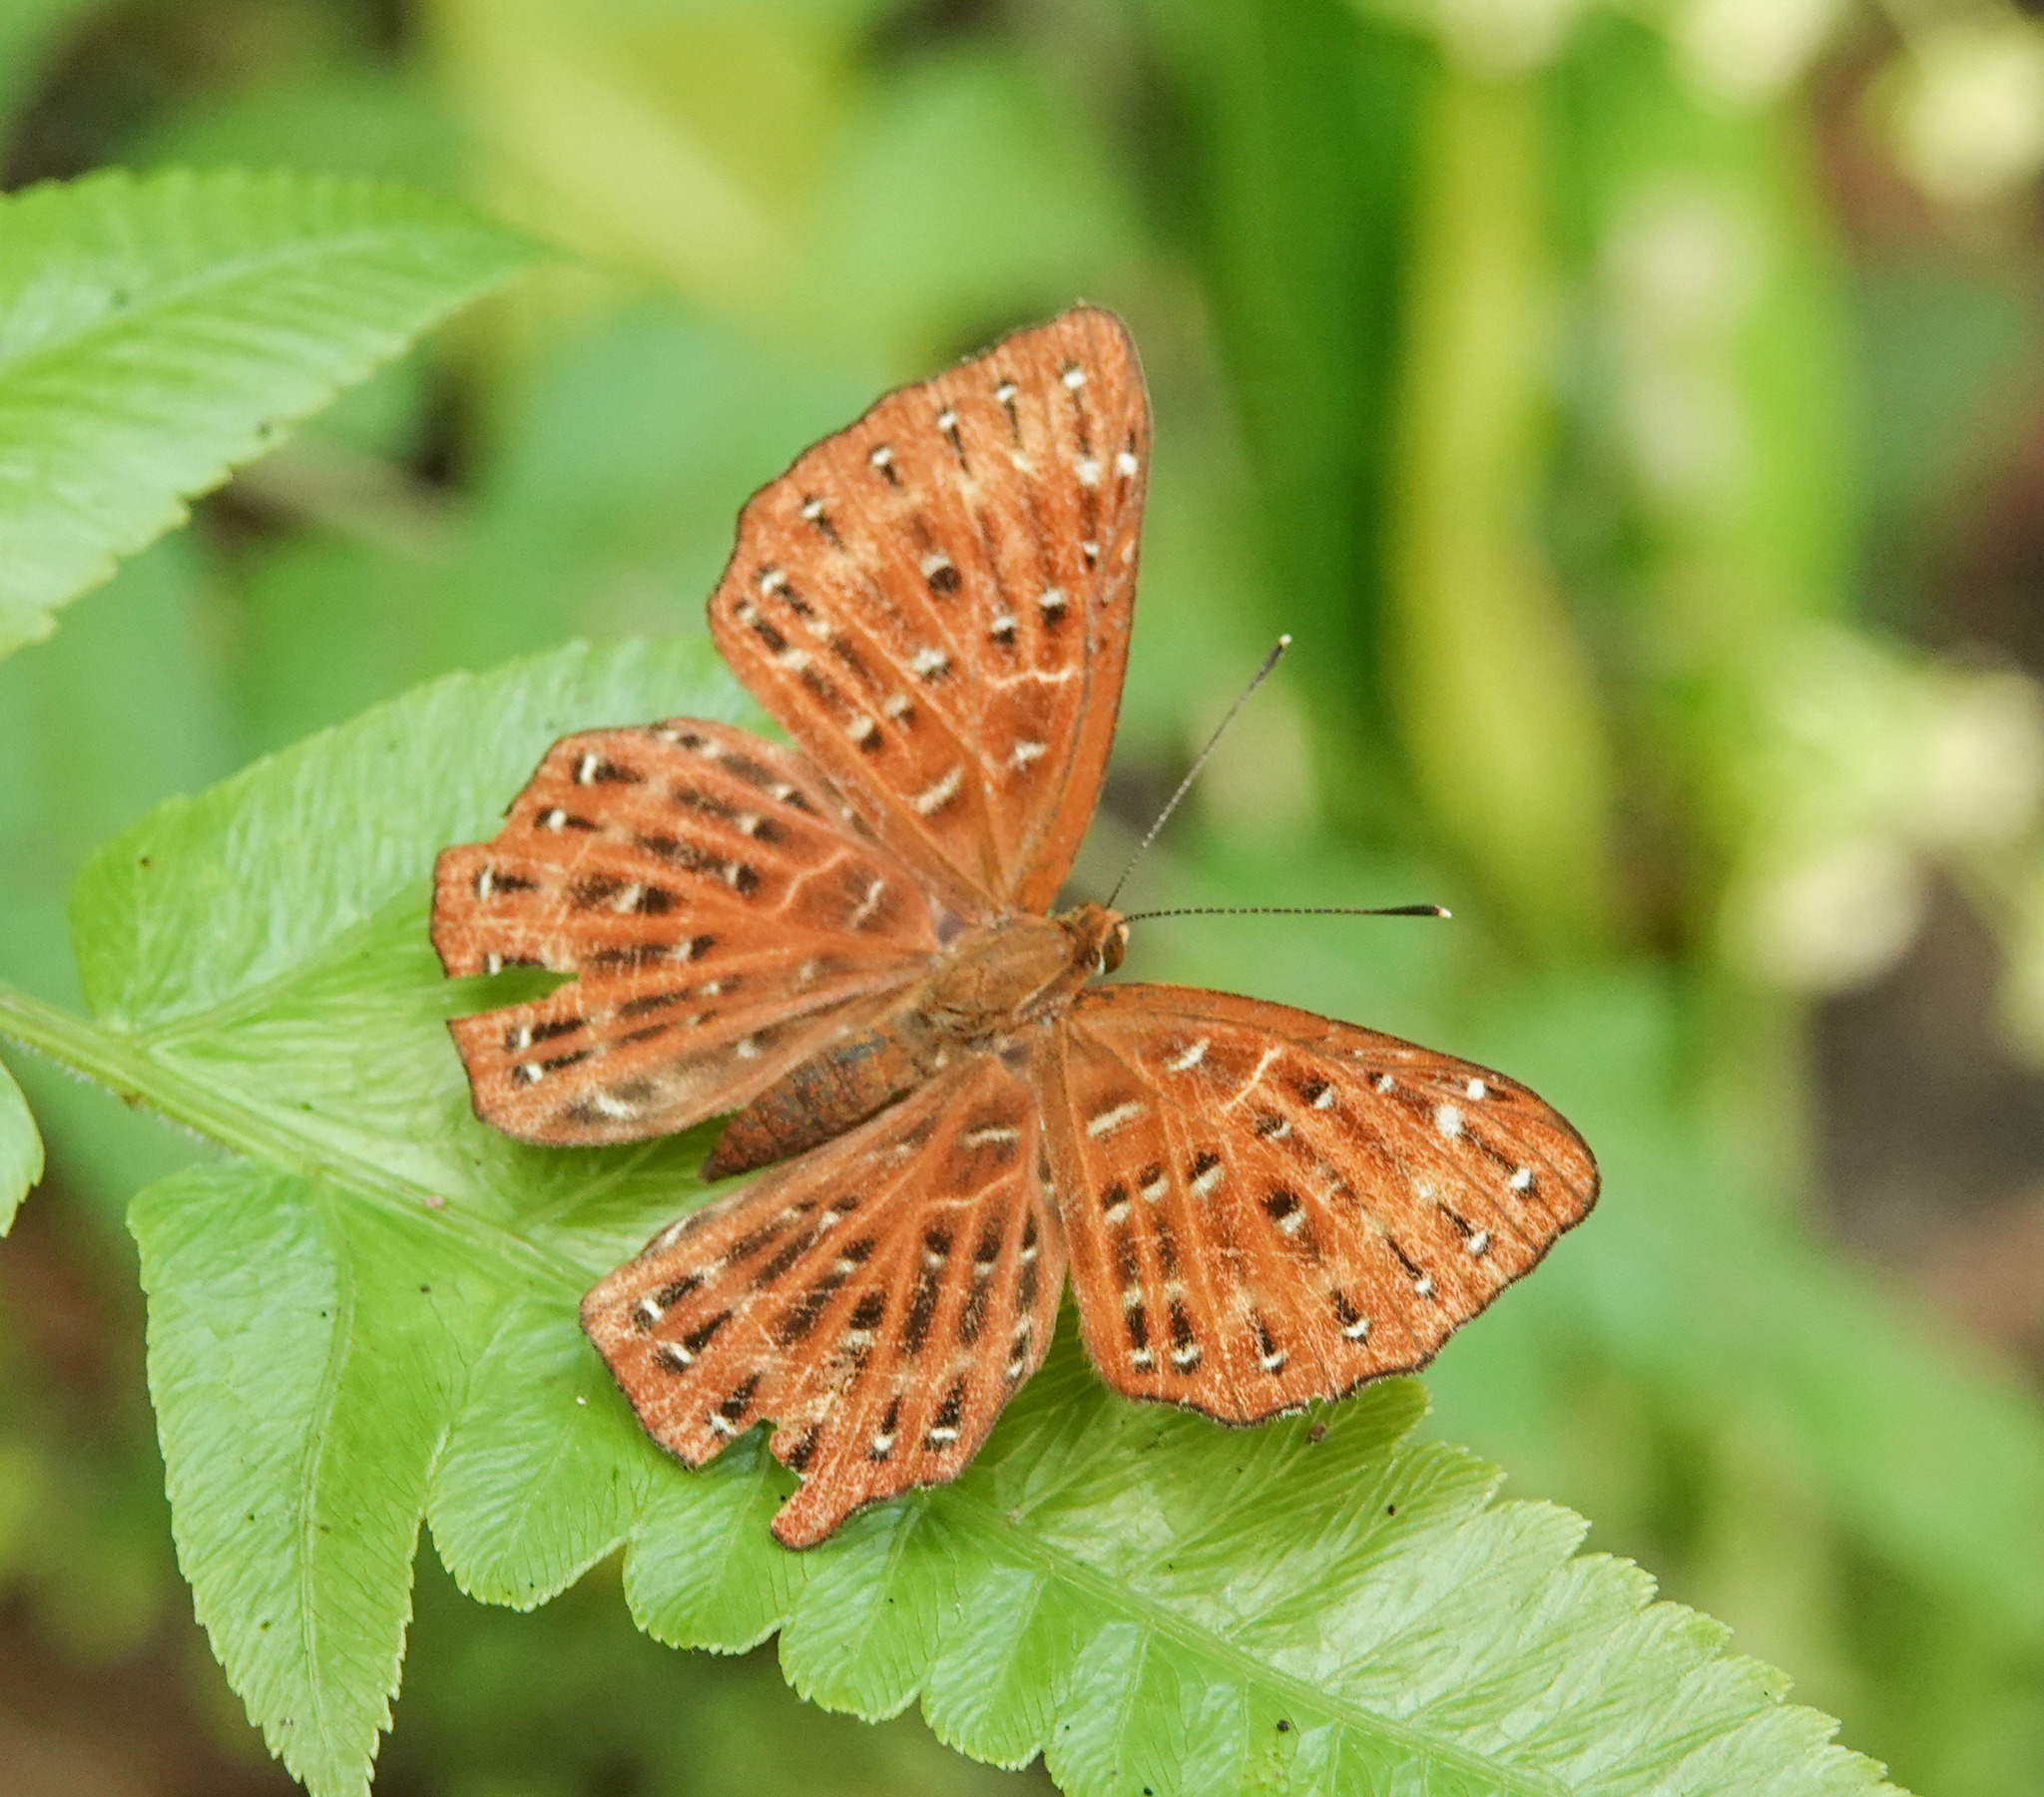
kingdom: Animalia
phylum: Arthropoda
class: Insecta
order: Lepidoptera
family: Riodinidae
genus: Zemeros
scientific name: Zemeros flegyas
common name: Punchinello
